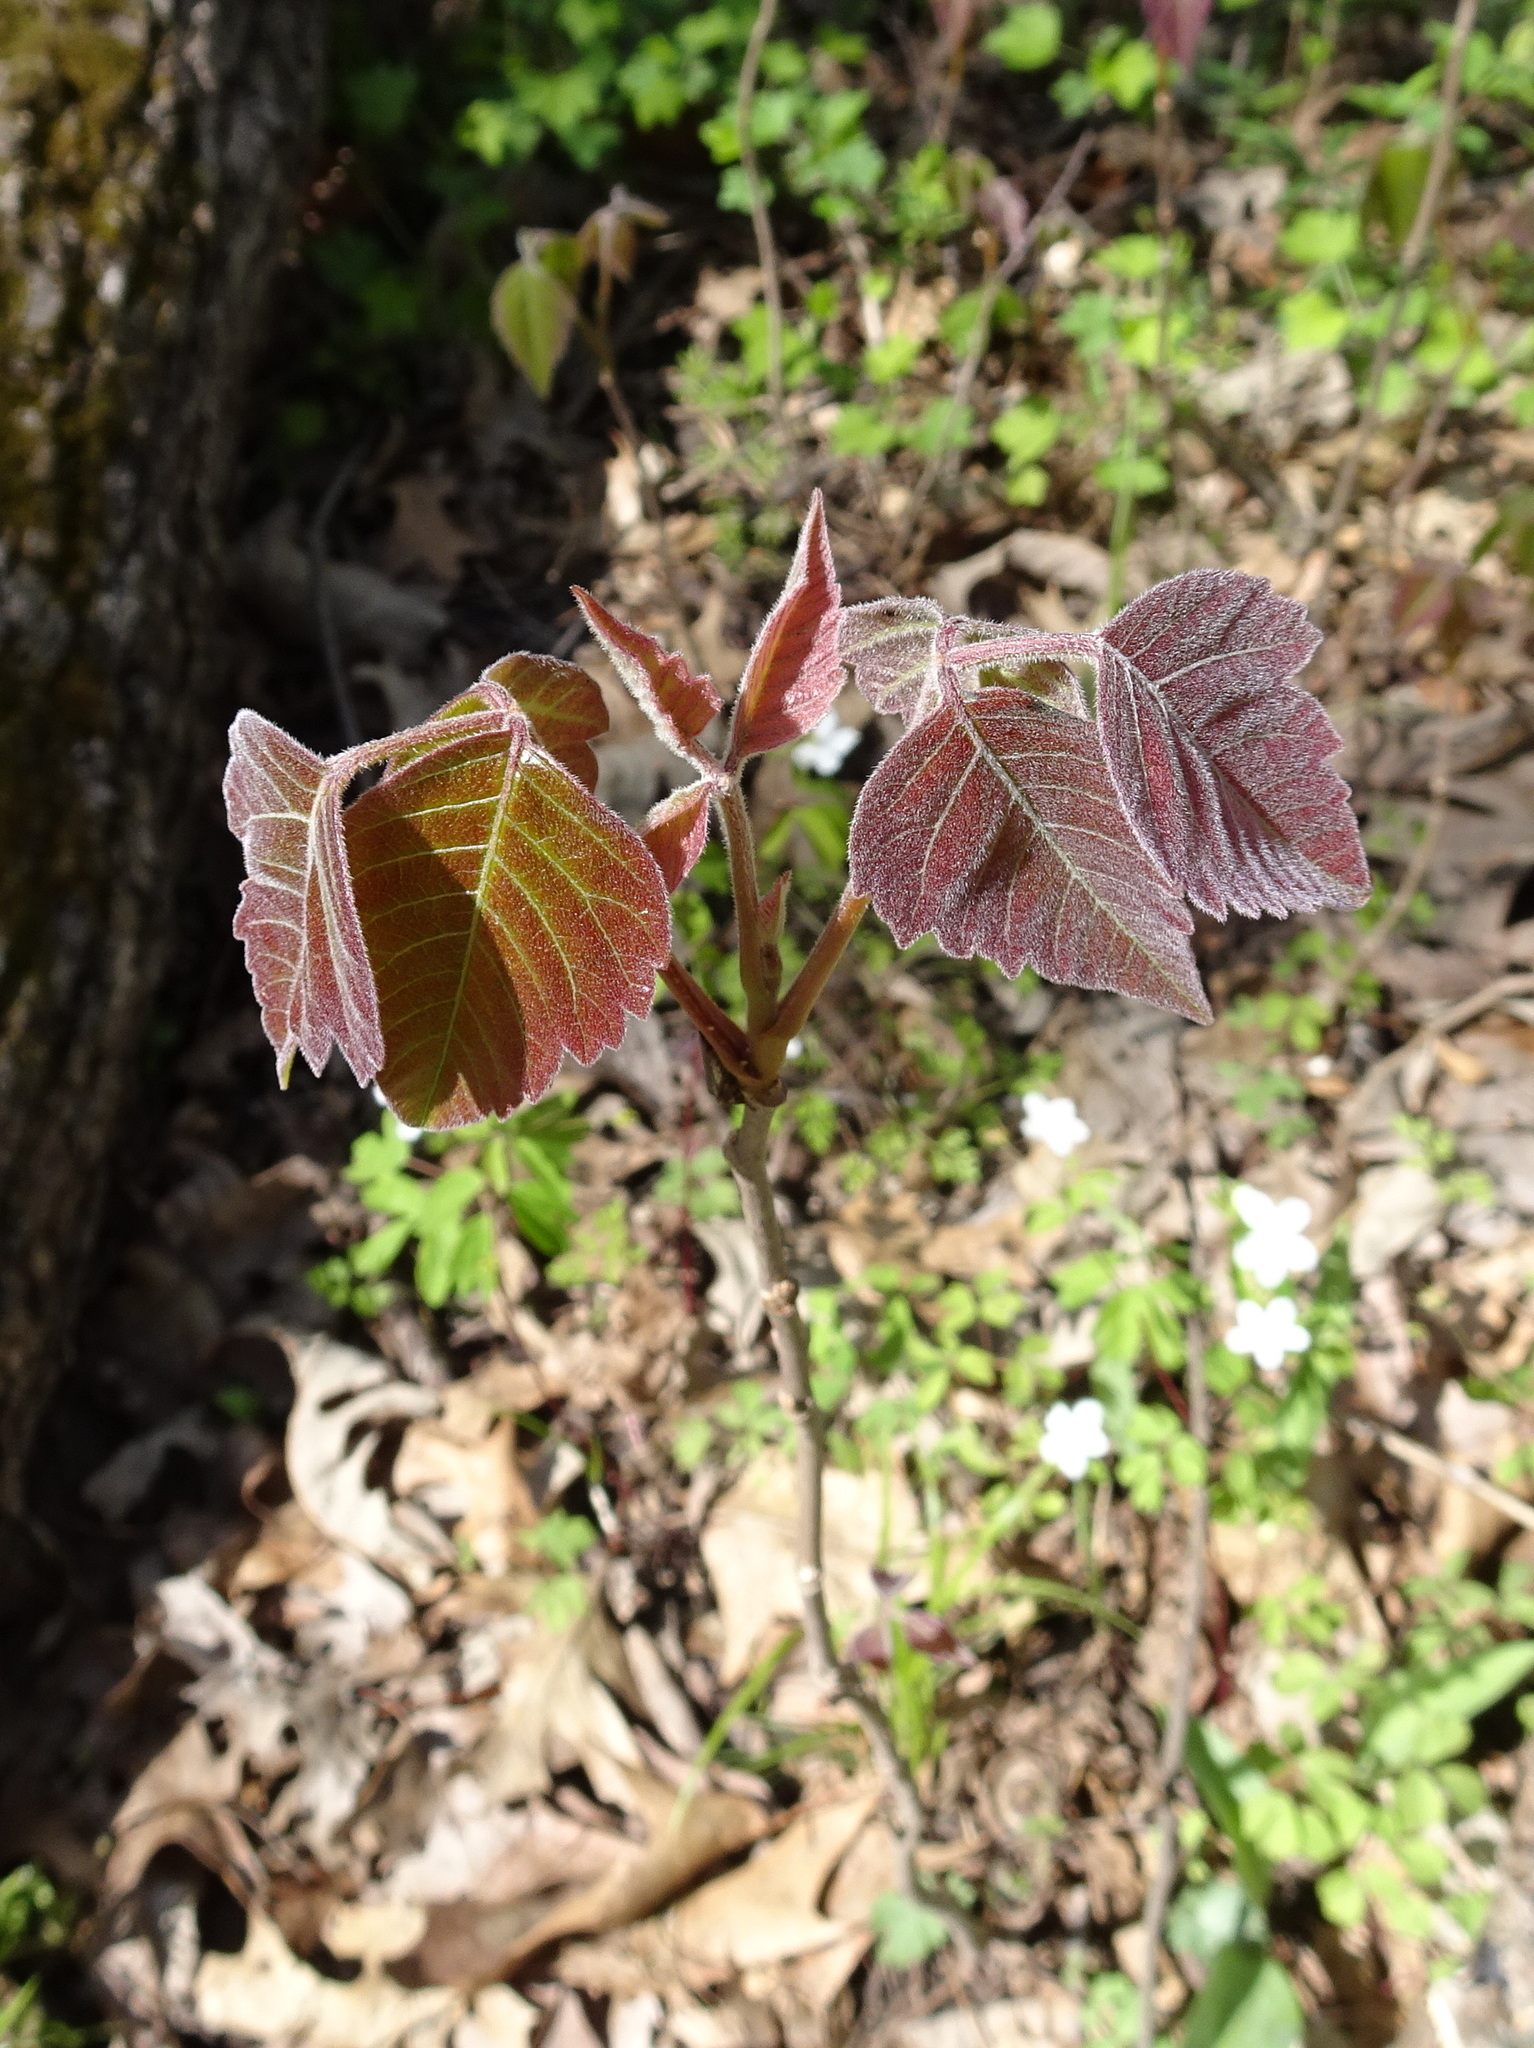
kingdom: Plantae
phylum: Tracheophyta
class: Magnoliopsida
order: Sapindales
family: Anacardiaceae
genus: Toxicodendron
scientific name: Toxicodendron radicans
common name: Poison ivy
